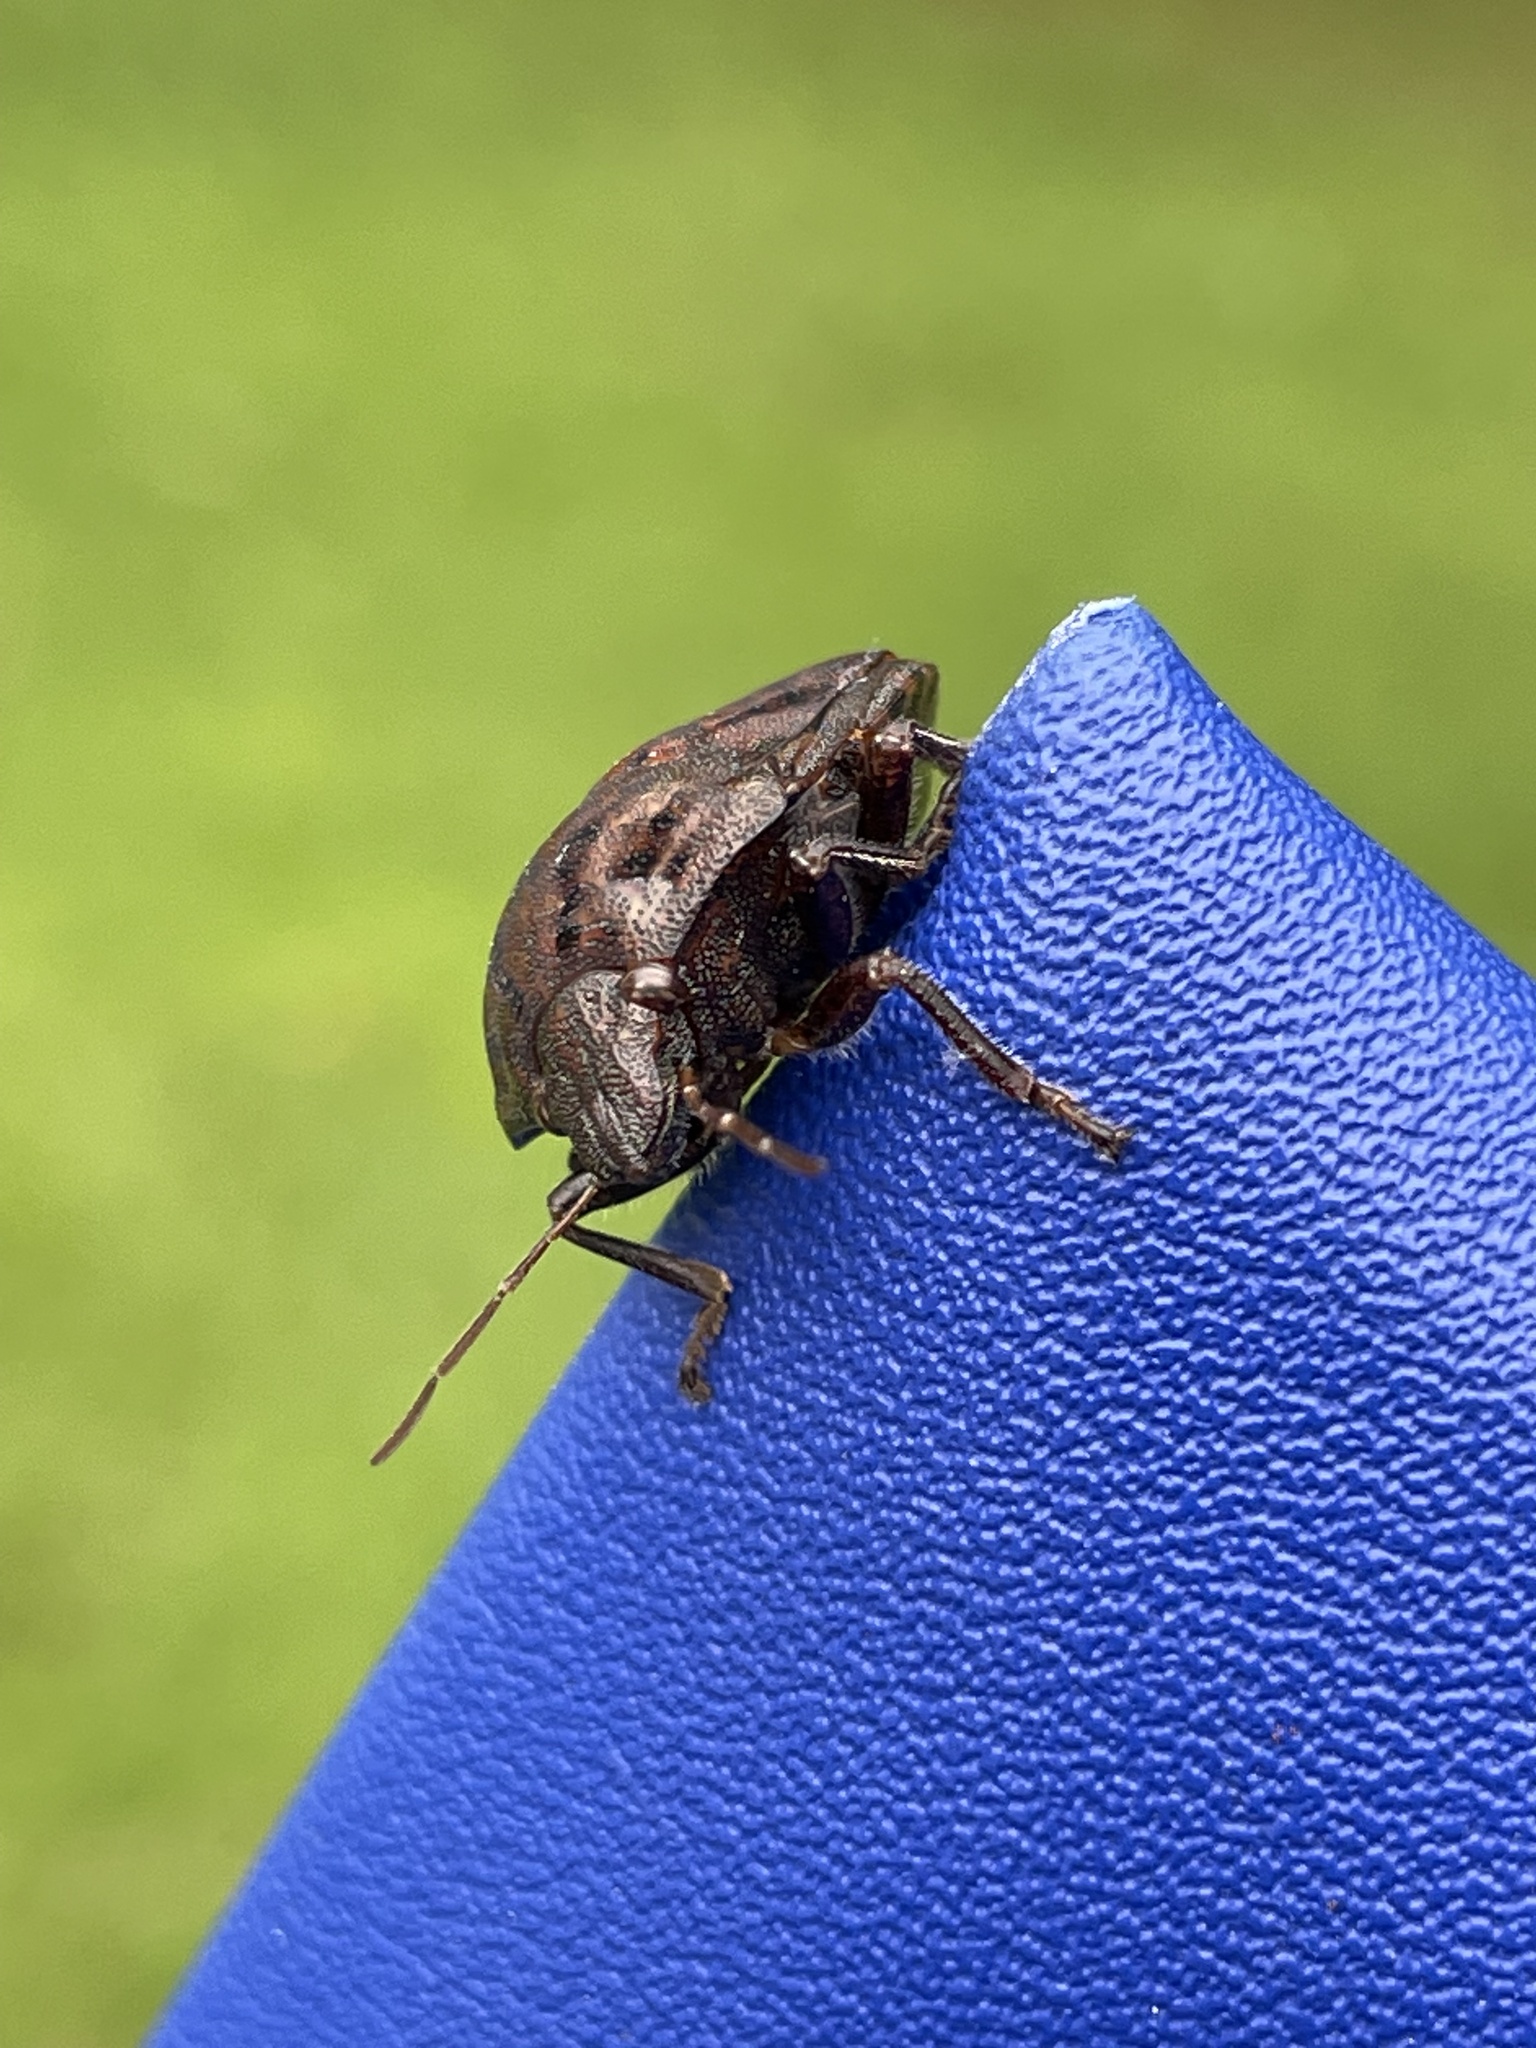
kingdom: Animalia
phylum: Arthropoda
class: Insecta
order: Hemiptera
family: Scutelleridae
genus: Tetyra
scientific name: Tetyra bipunctata
